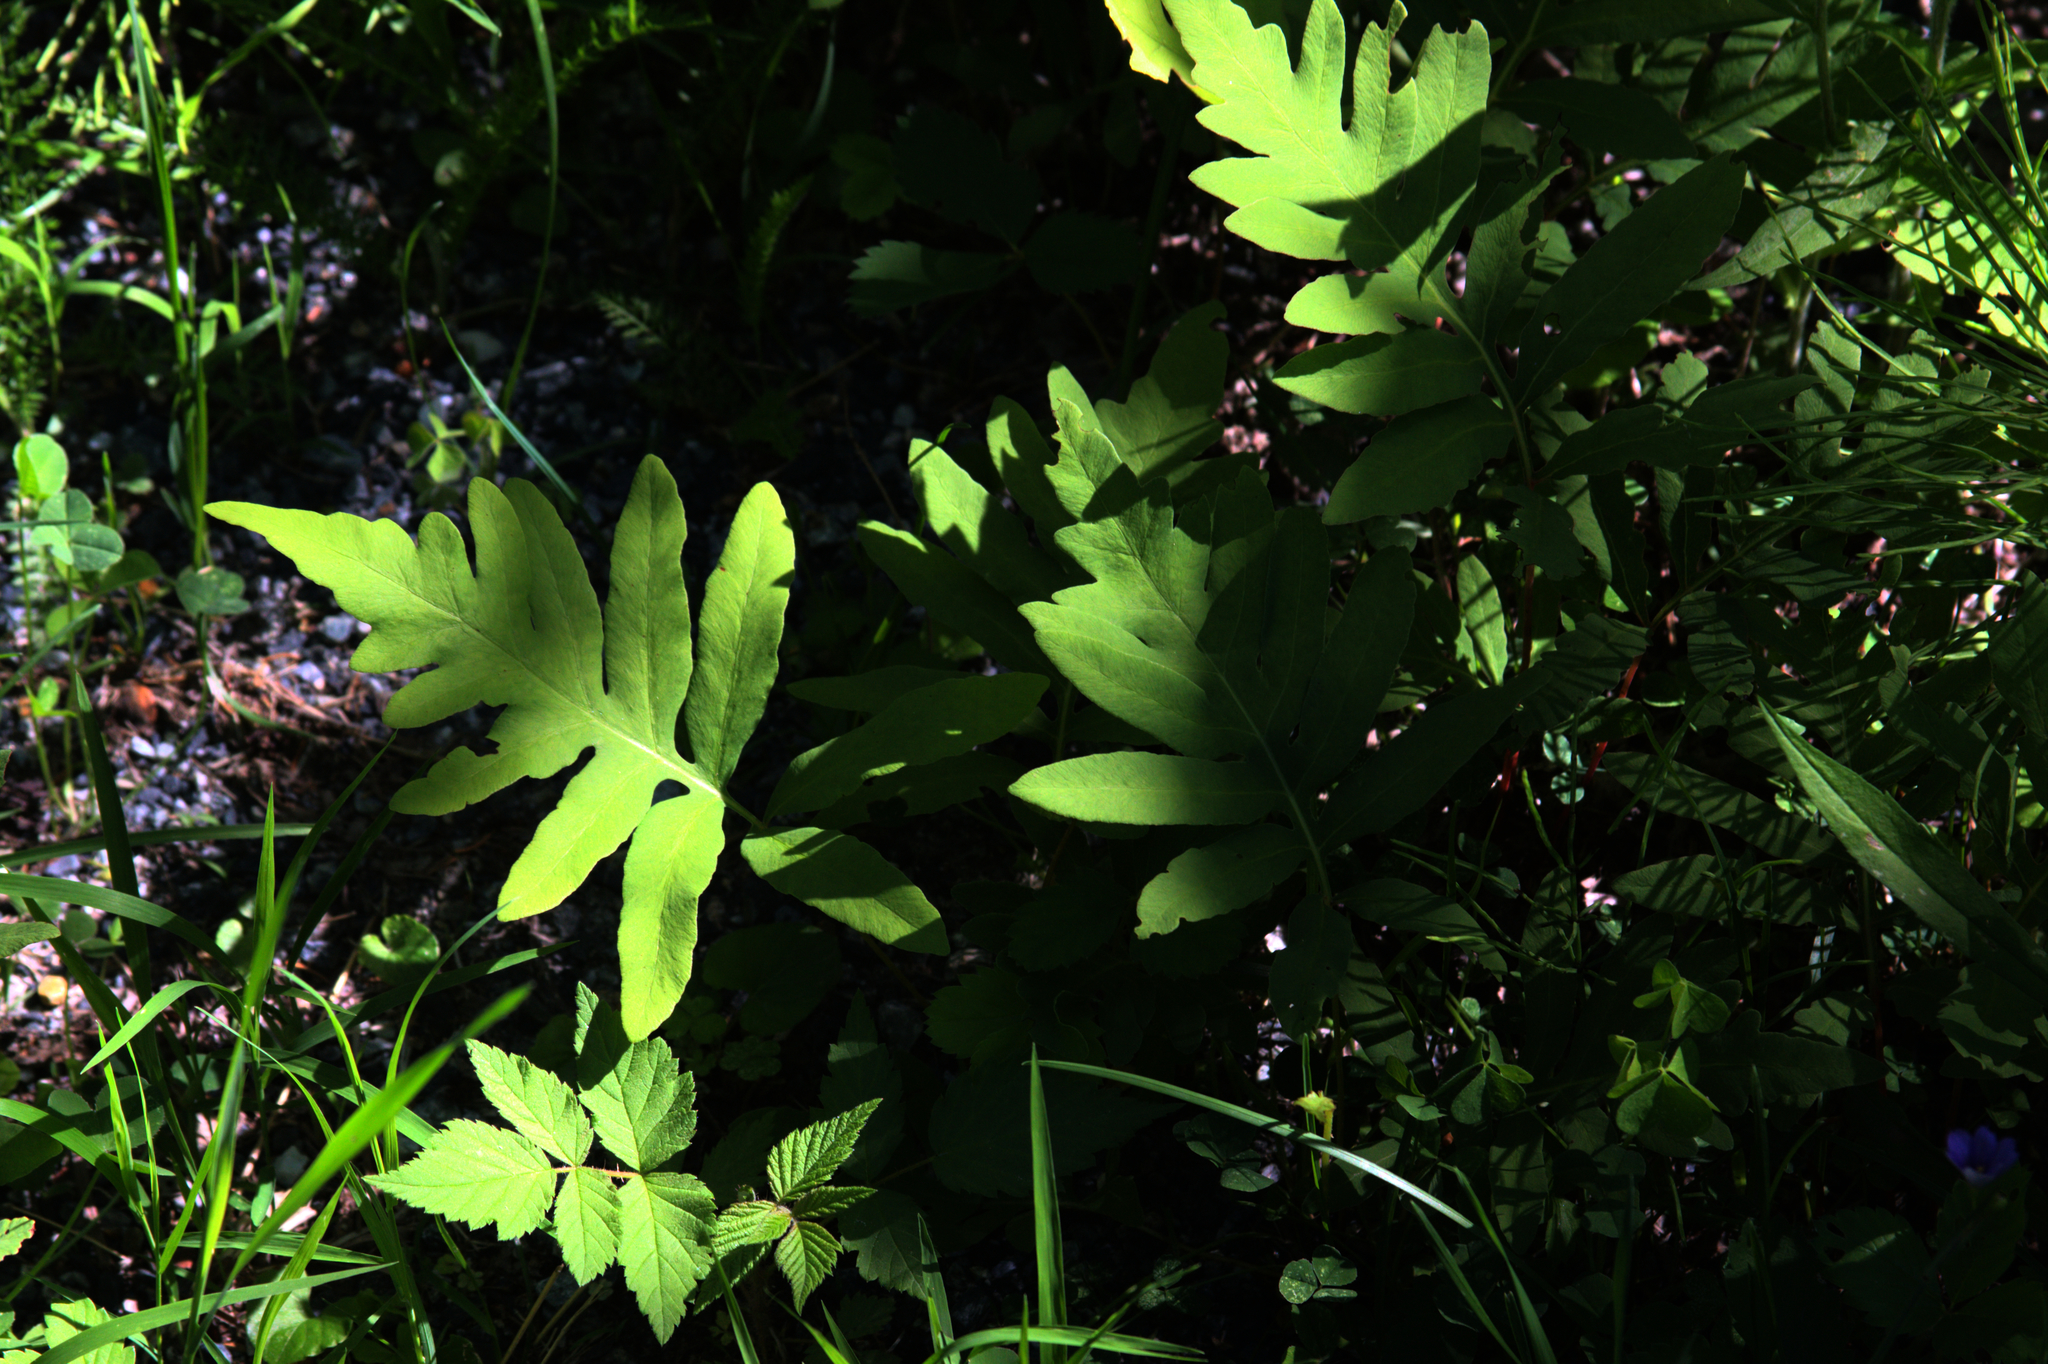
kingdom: Plantae
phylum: Tracheophyta
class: Polypodiopsida
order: Polypodiales
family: Onocleaceae
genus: Onoclea
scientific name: Onoclea sensibilis
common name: Sensitive fern
